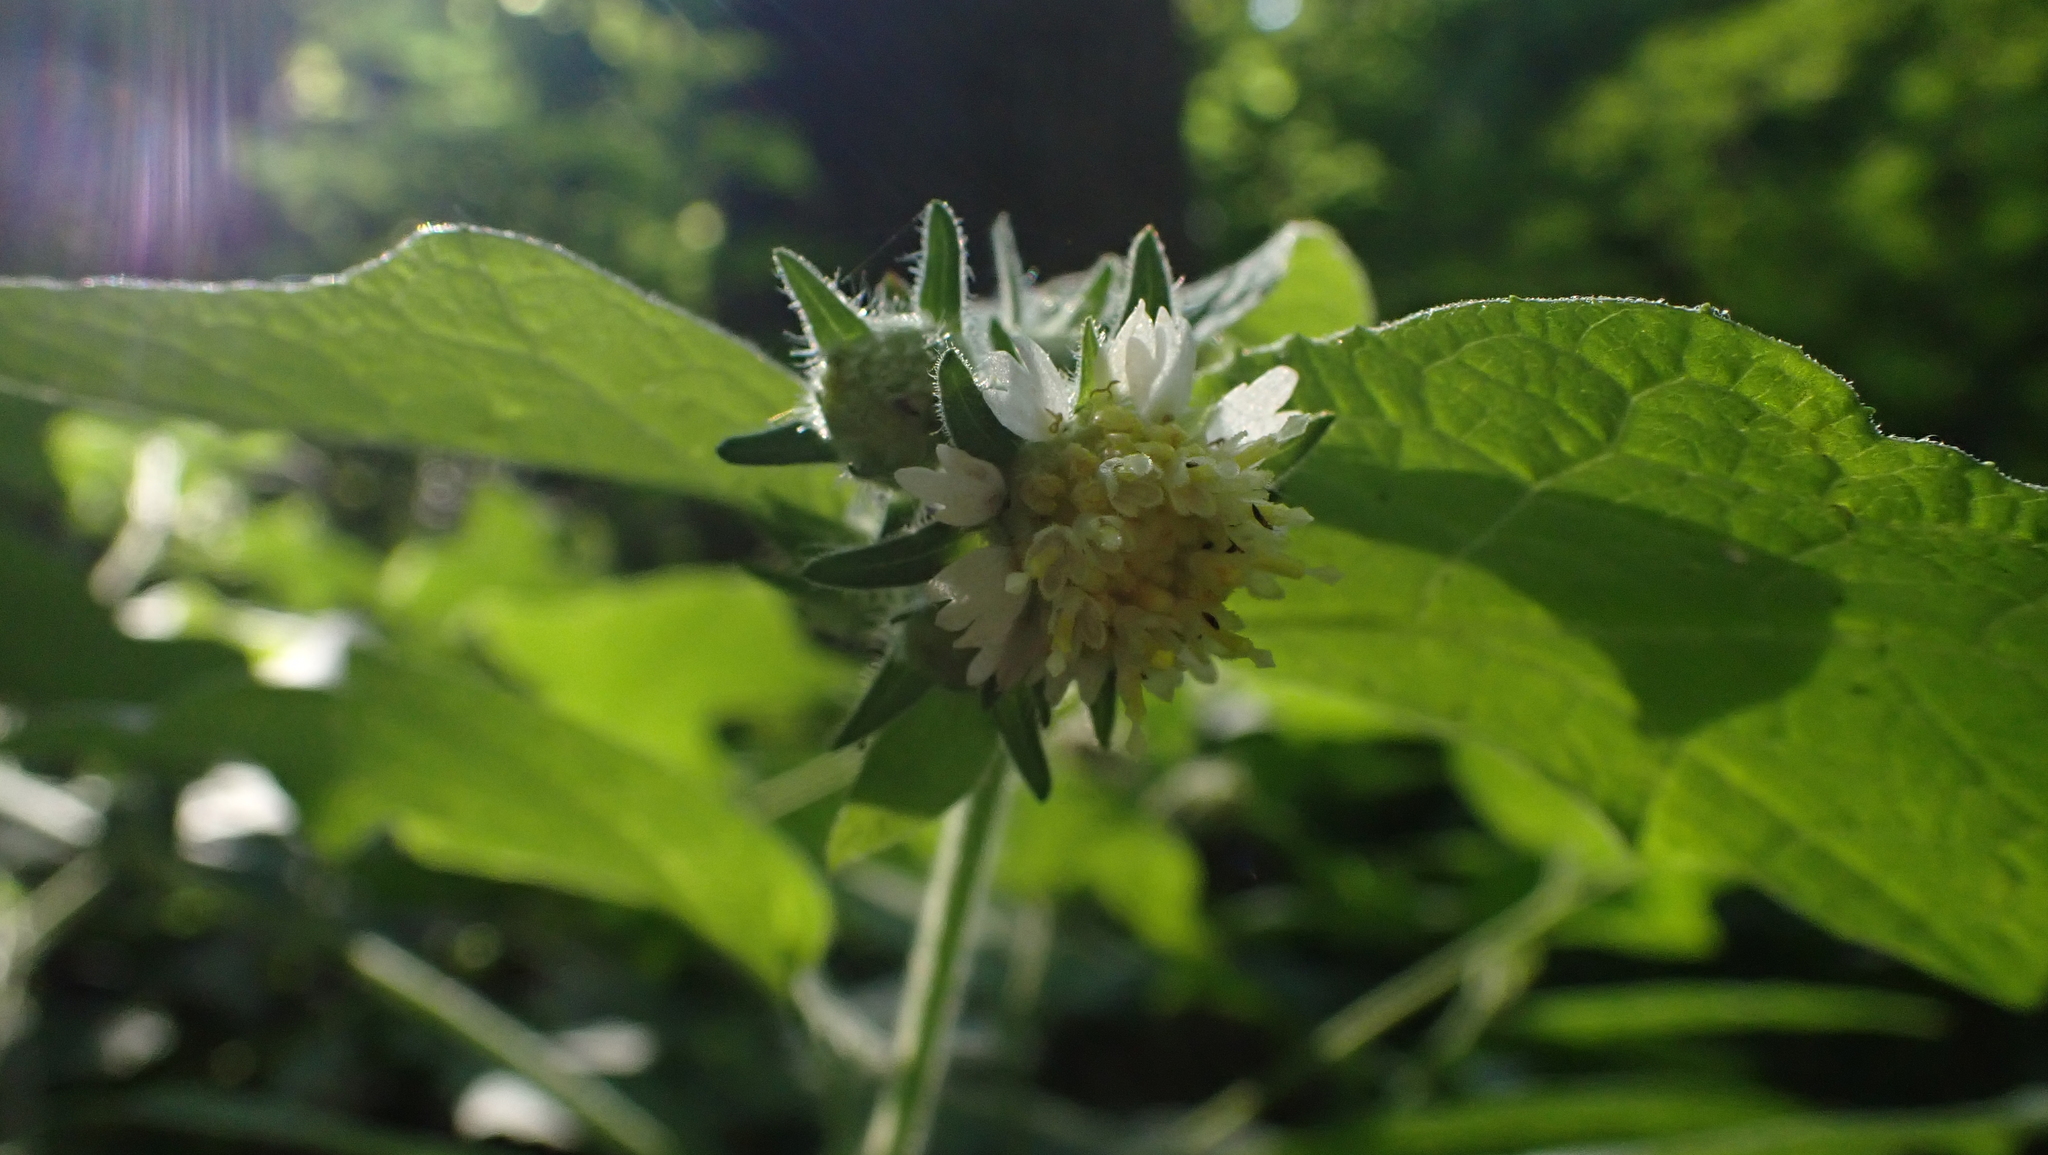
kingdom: Plantae
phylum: Tracheophyta
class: Magnoliopsida
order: Asterales
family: Asteraceae
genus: Polymnia
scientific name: Polymnia canadensis
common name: Pale-flowered leafcup
